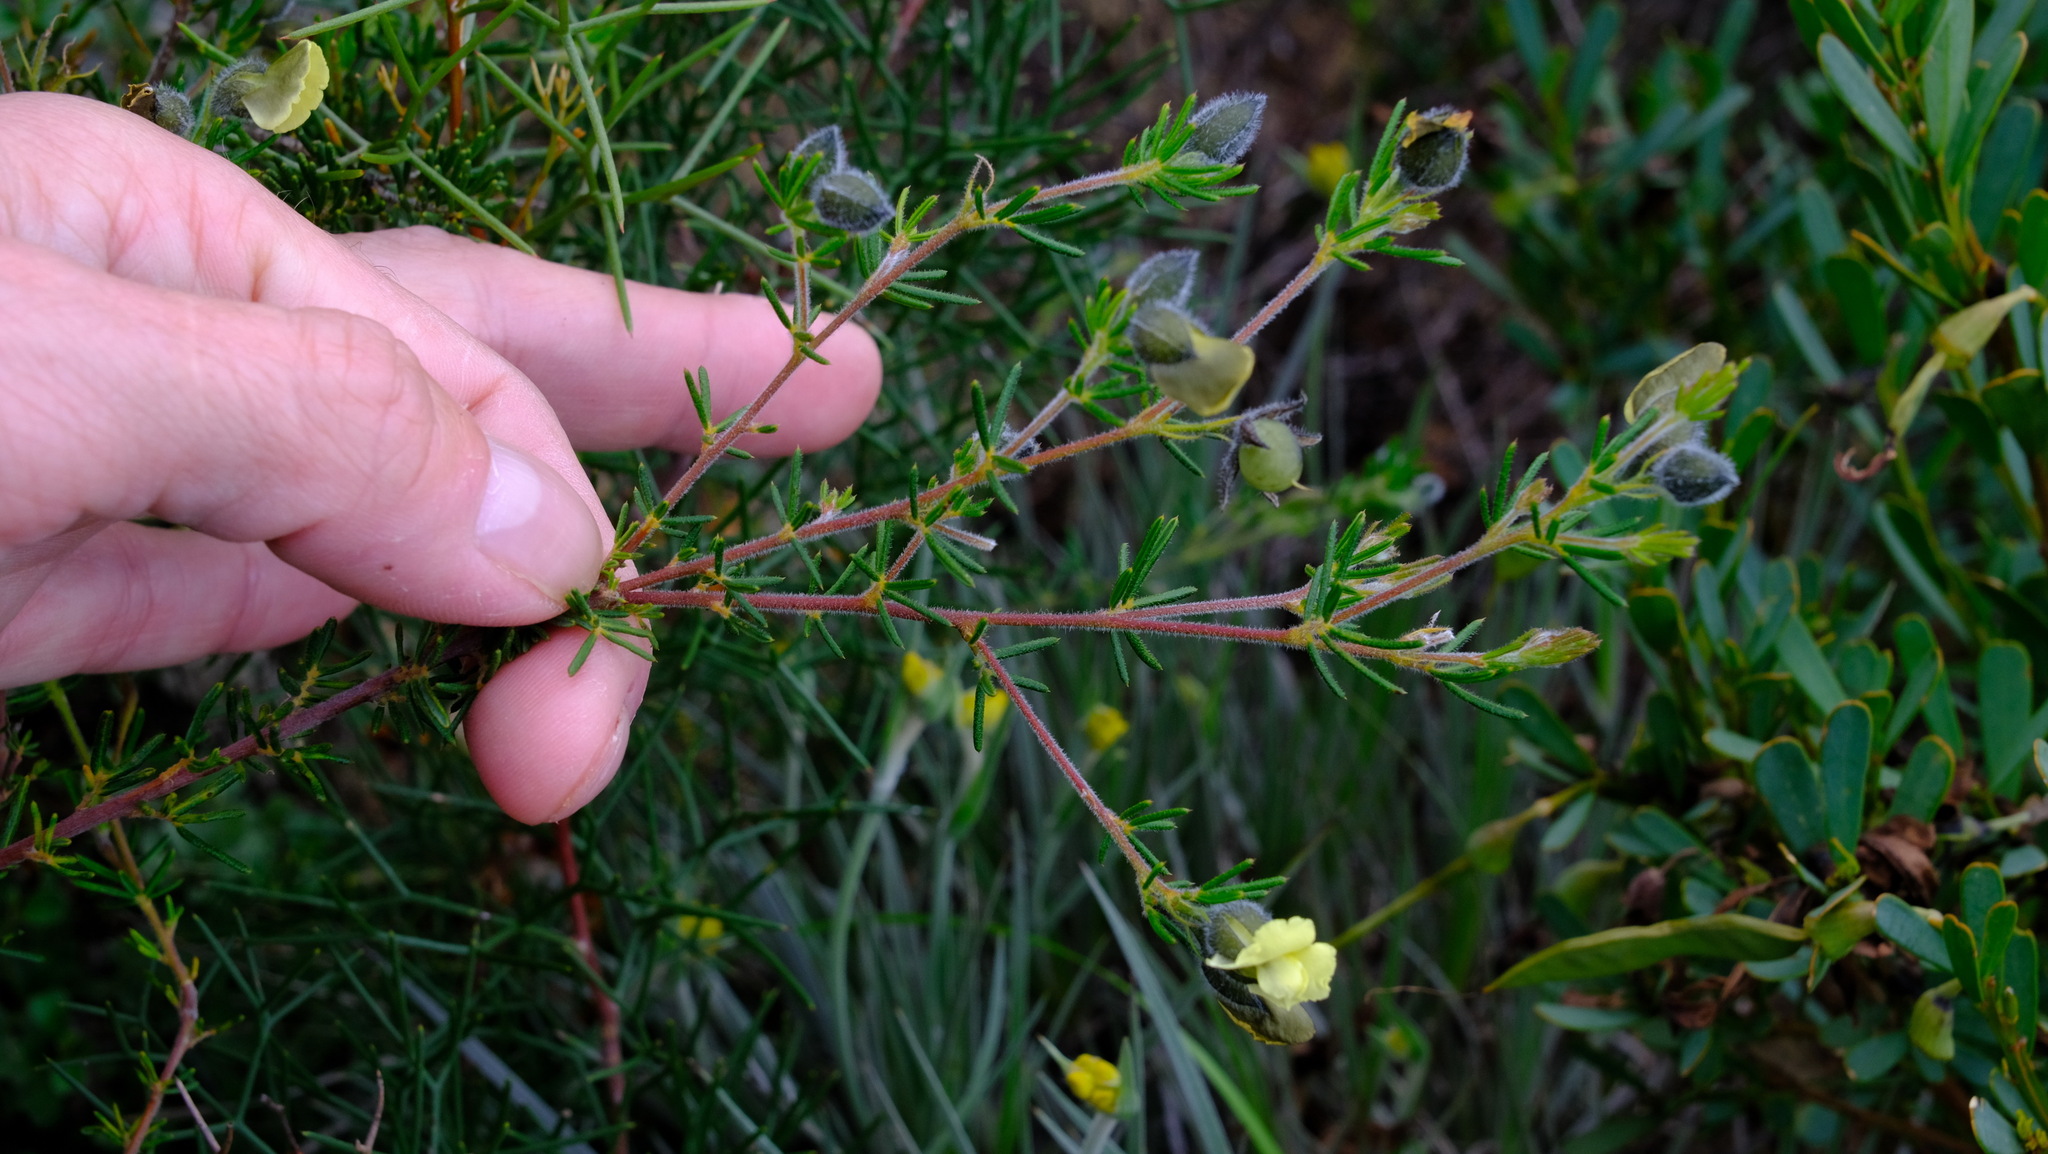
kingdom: Plantae
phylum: Tracheophyta
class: Magnoliopsida
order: Fabales
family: Fabaceae
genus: Gompholobium
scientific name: Gompholobium tomentosum
